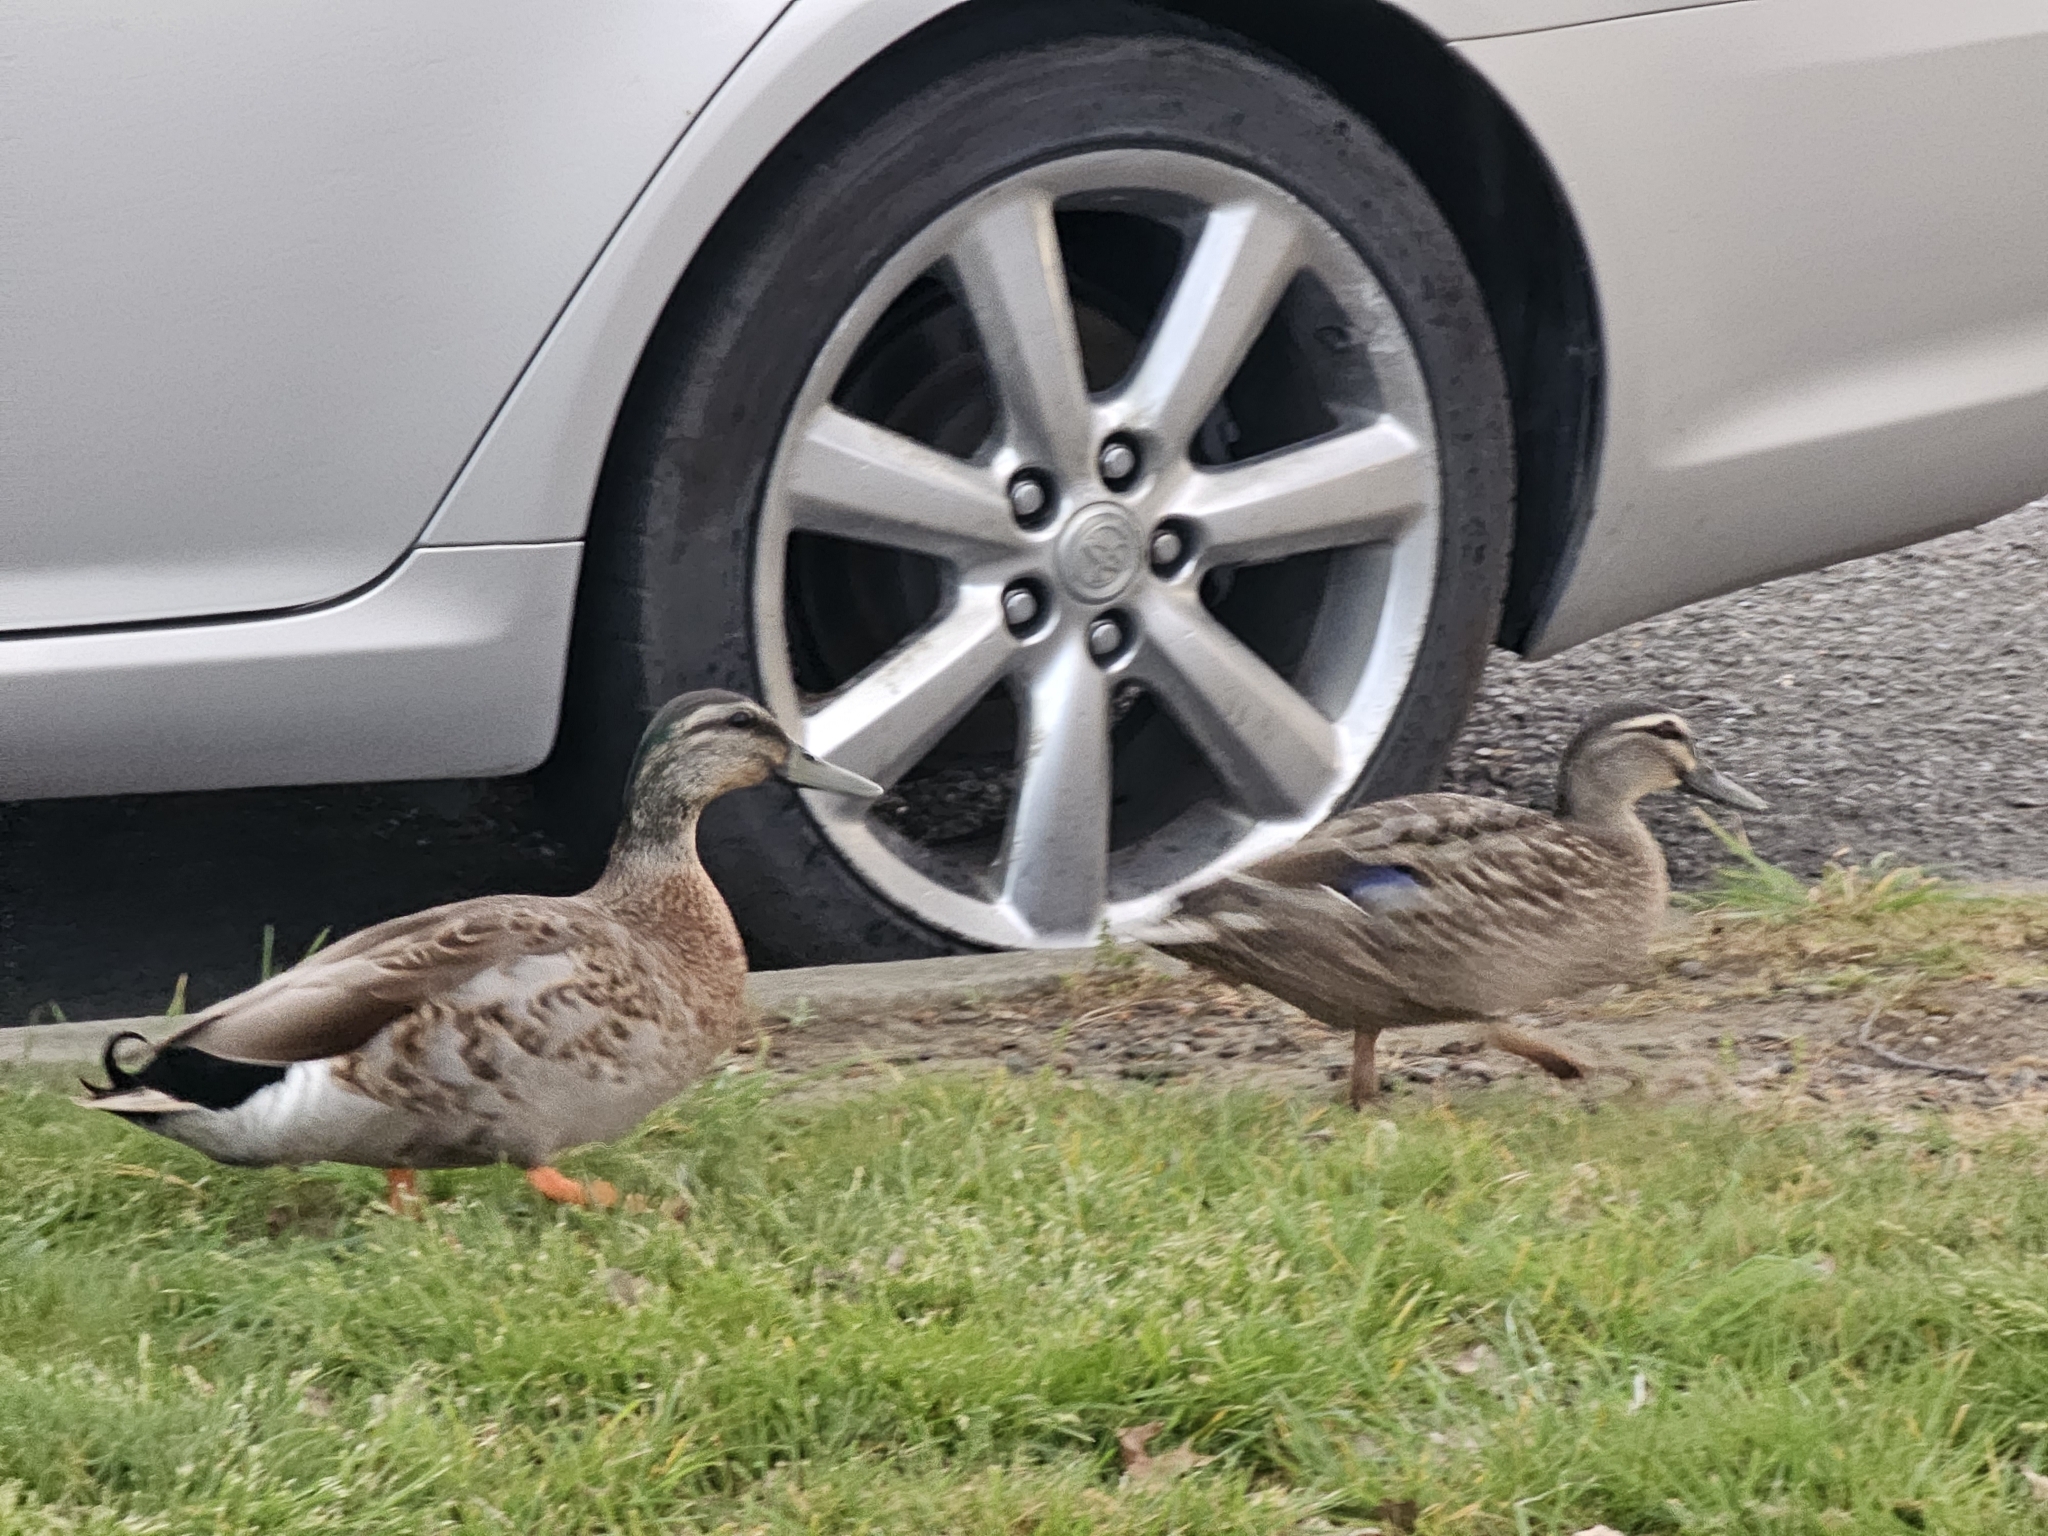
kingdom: Animalia
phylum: Chordata
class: Aves
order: Anseriformes
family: Anatidae
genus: Anas
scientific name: Anas
